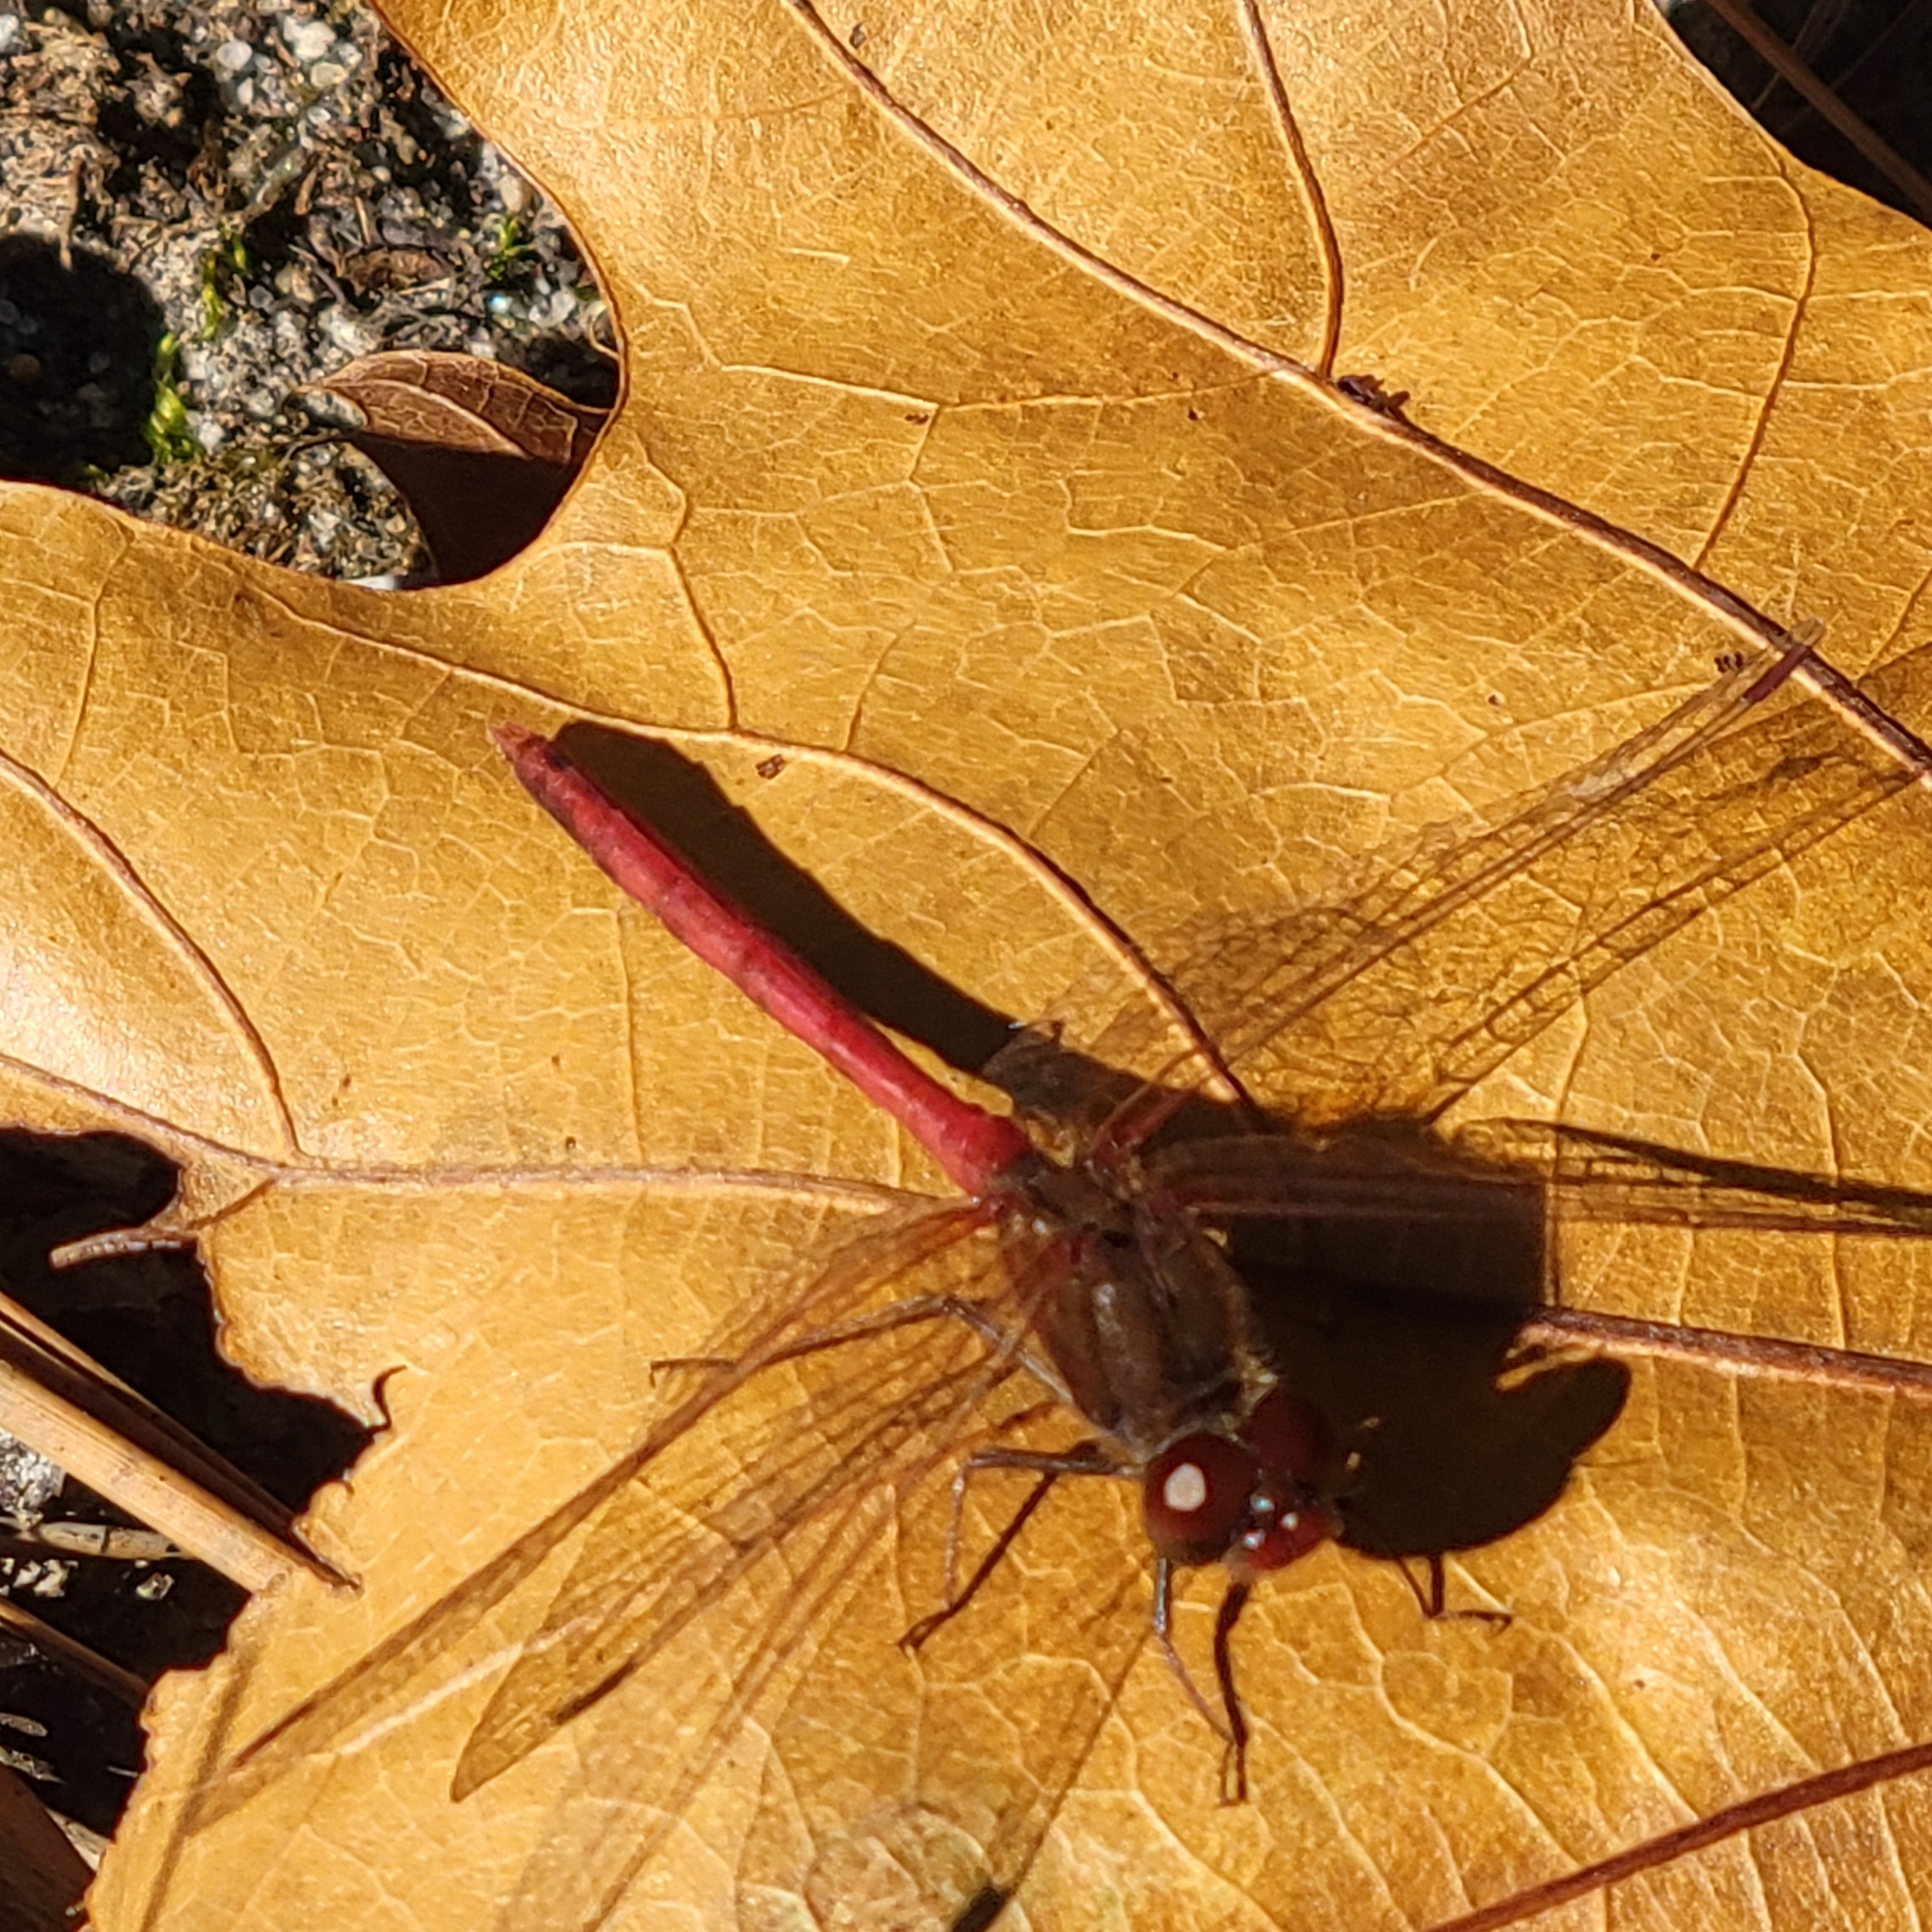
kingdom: Animalia
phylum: Arthropoda
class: Insecta
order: Odonata
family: Libellulidae
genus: Sympetrum
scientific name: Sympetrum vicinum
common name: Autumn meadowhawk
